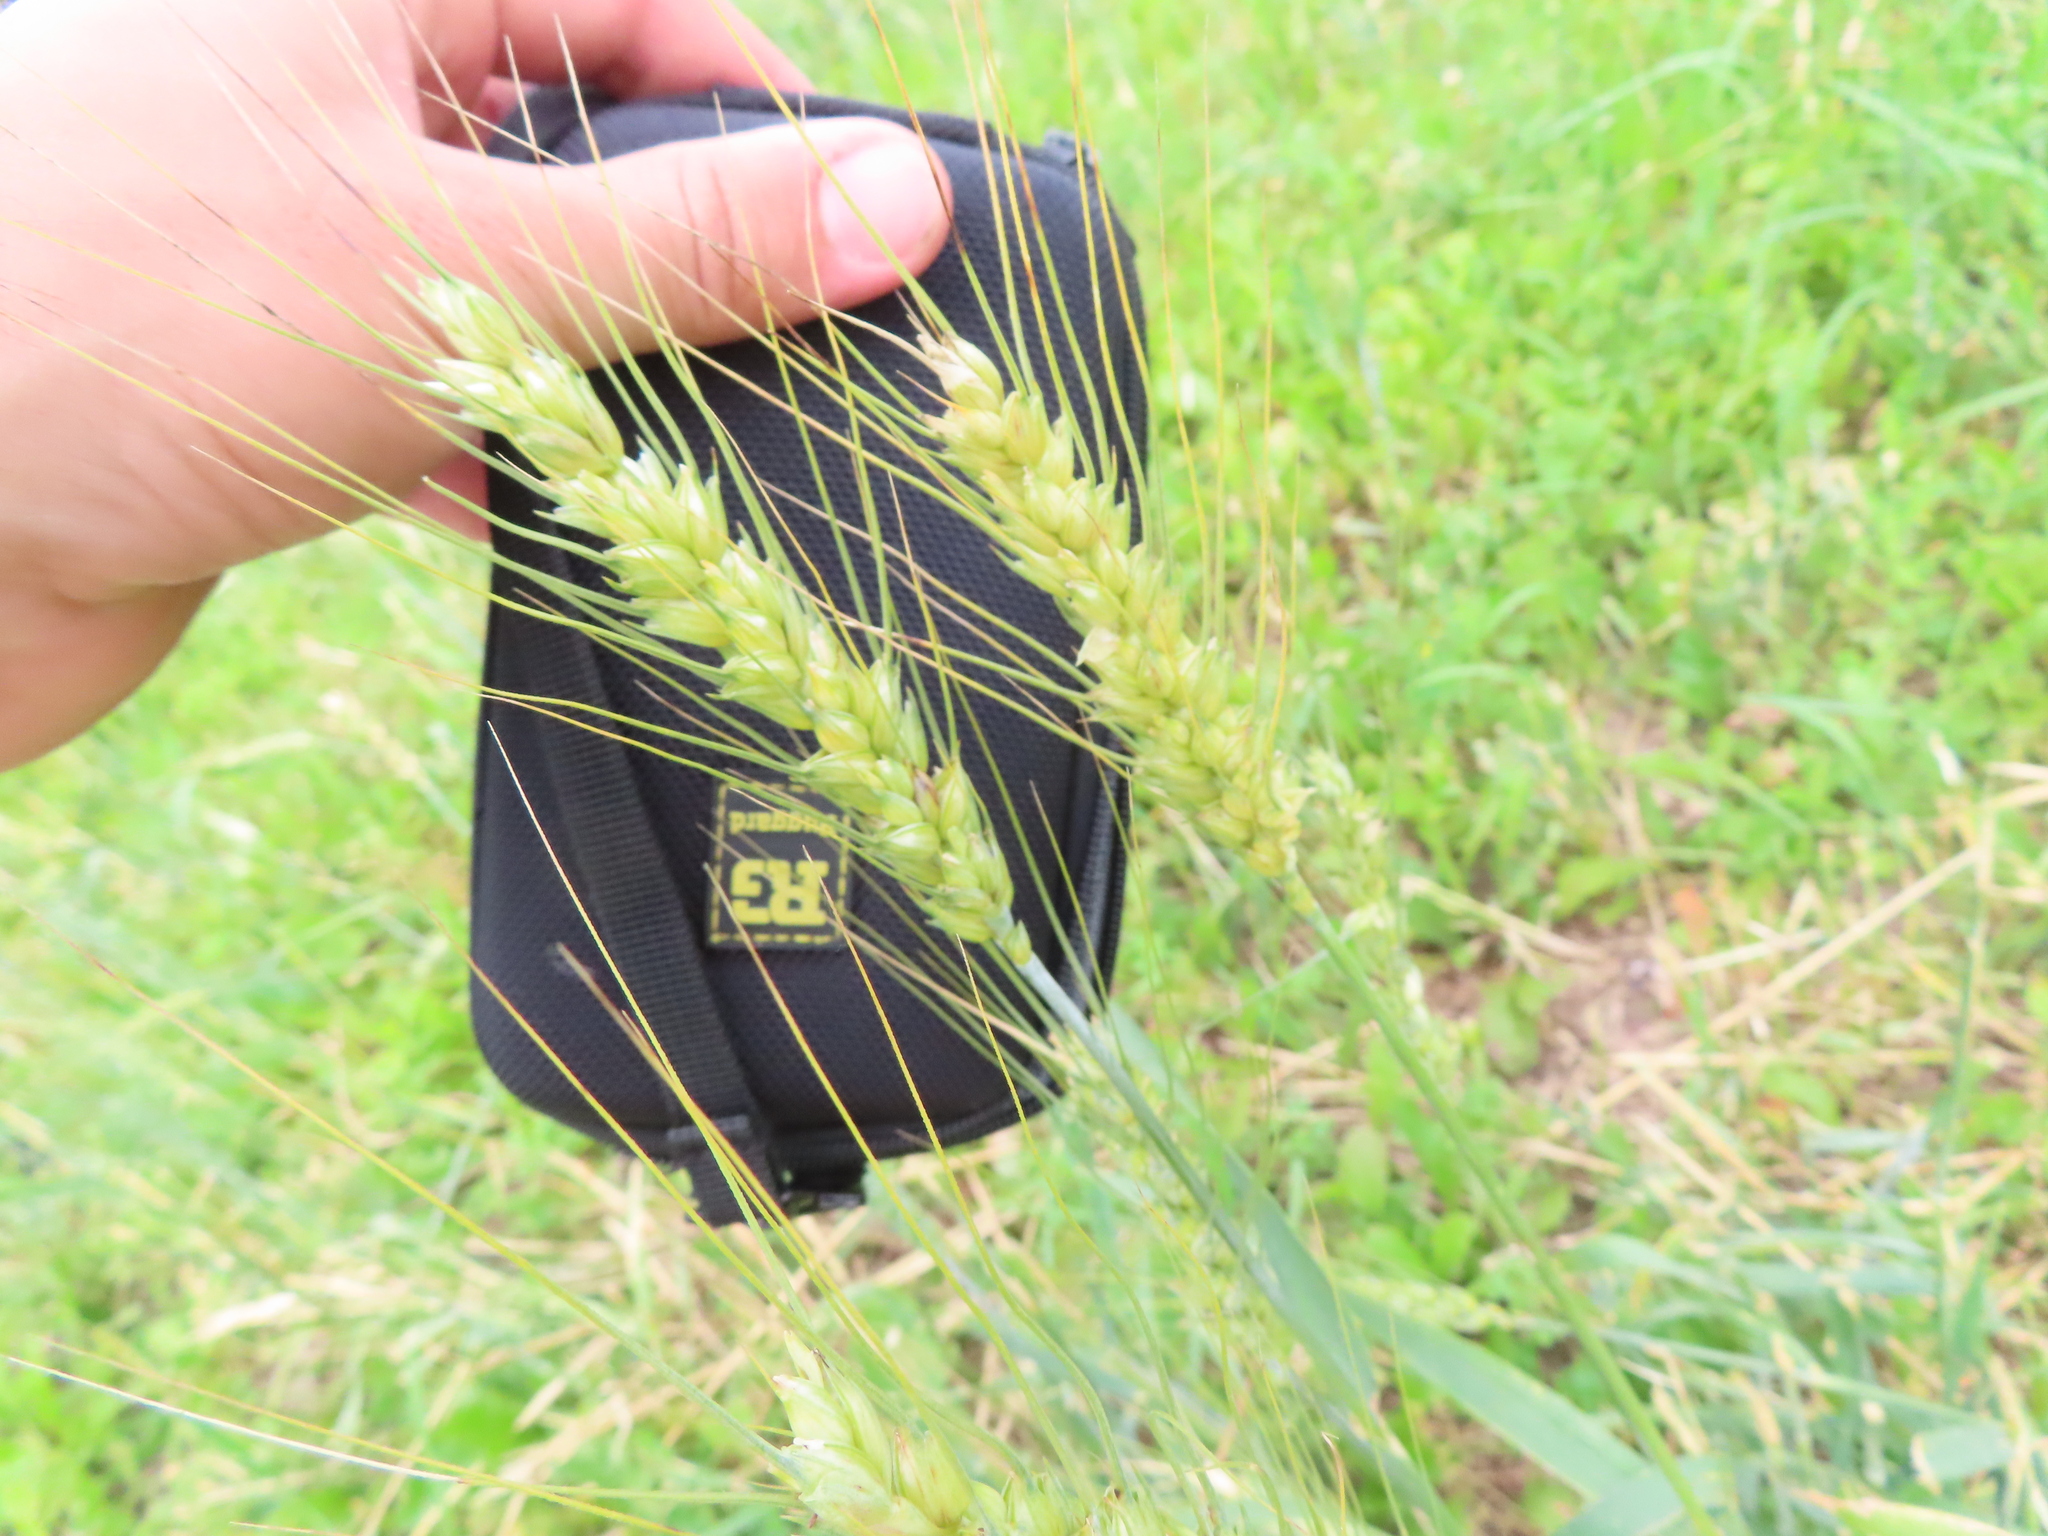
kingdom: Plantae
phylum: Tracheophyta
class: Liliopsida
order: Poales
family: Poaceae
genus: Triticum
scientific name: Triticum aestivum
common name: Common wheat
